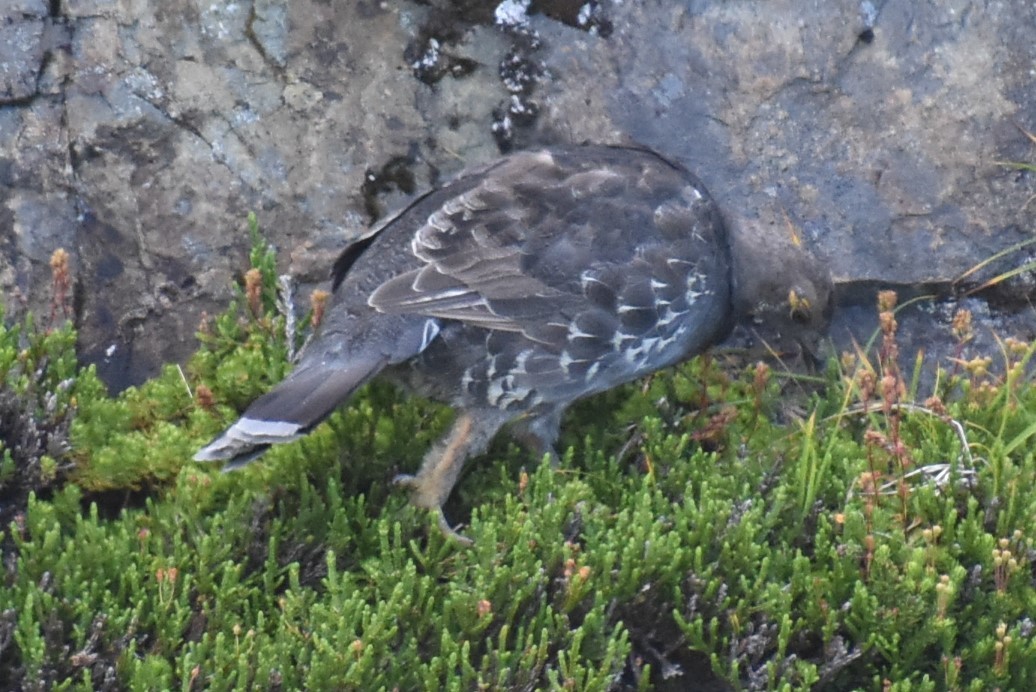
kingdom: Animalia
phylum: Chordata
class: Aves
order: Galliformes
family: Phasianidae
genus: Dendragapus
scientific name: Dendragapus fuliginosus
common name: Sooty grouse
